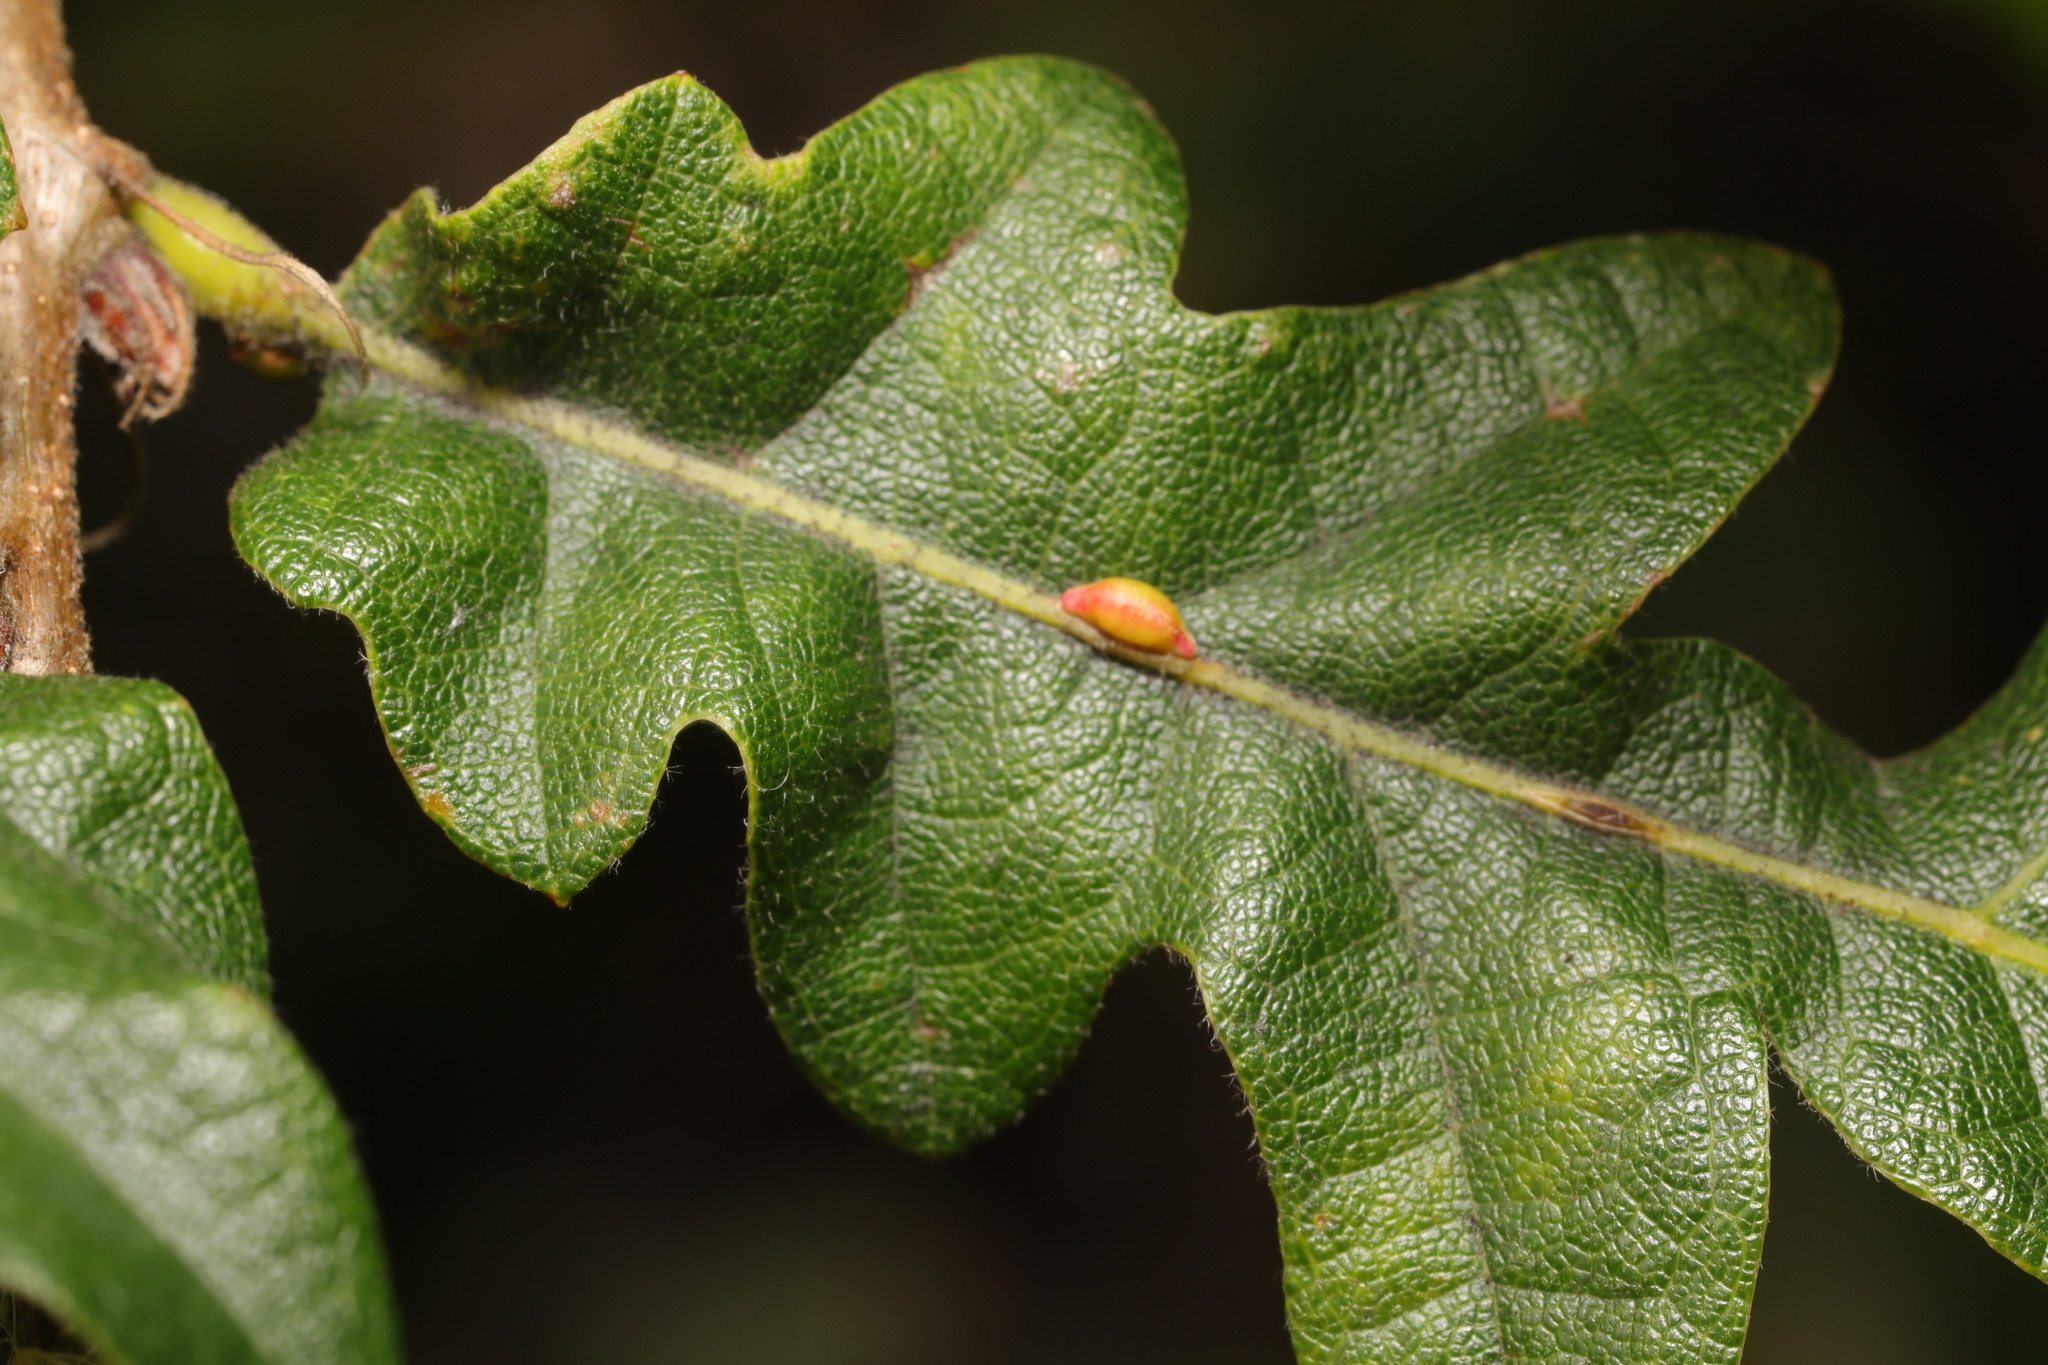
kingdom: Animalia
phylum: Arthropoda
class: Insecta
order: Hymenoptera
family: Cynipidae
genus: Neuroterus
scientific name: Neuroterus saliens
